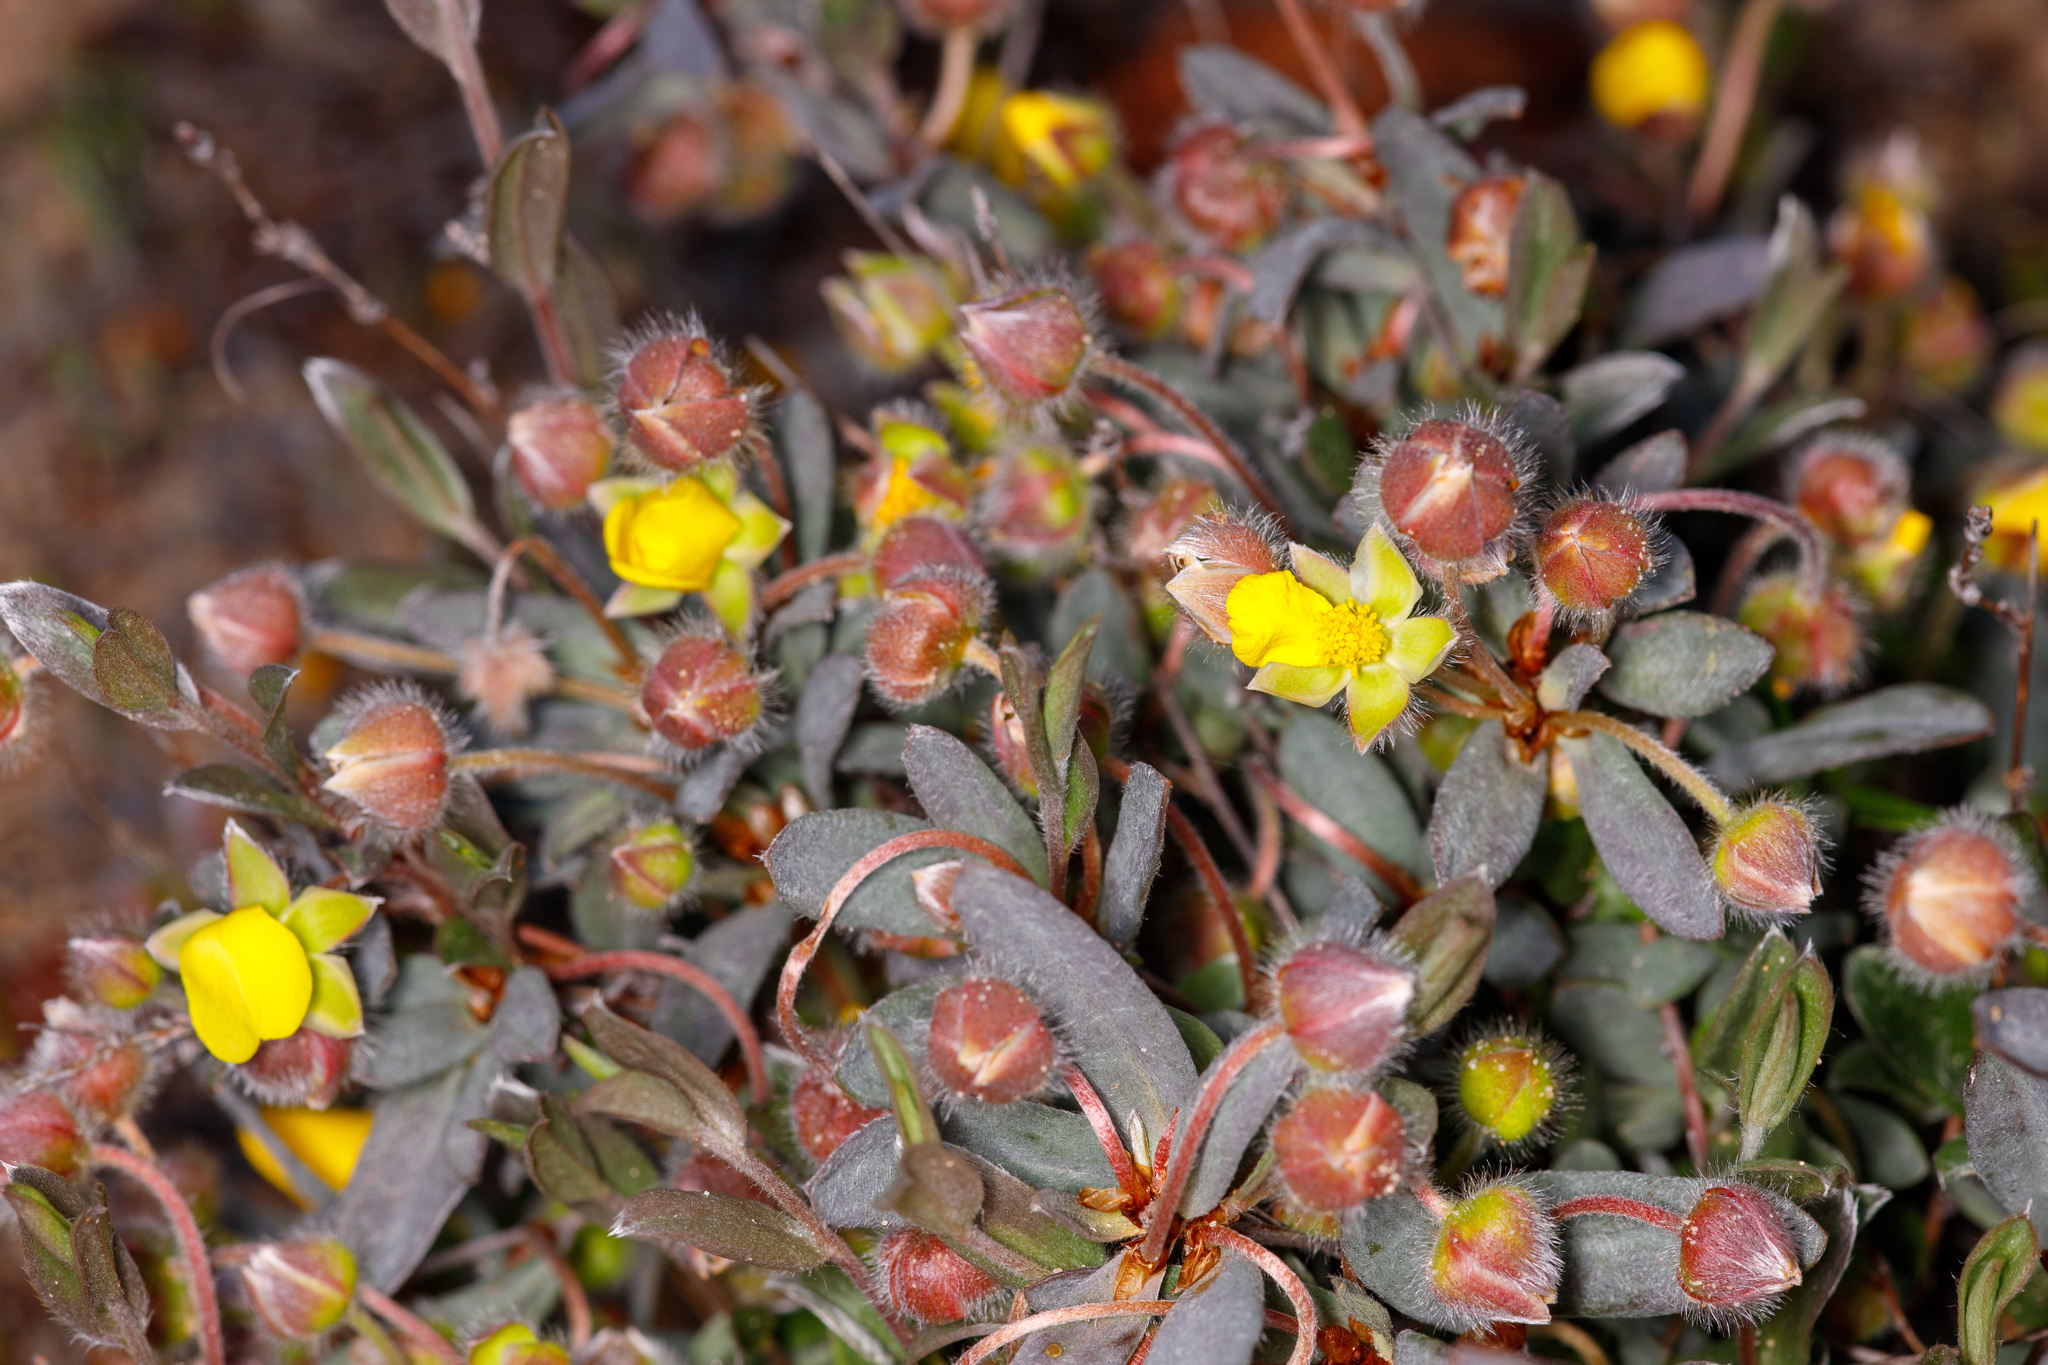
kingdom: Plantae
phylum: Tracheophyta
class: Magnoliopsida
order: Dilleniales
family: Dilleniaceae
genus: Hibbertia
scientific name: Hibbertia potentilliflora
